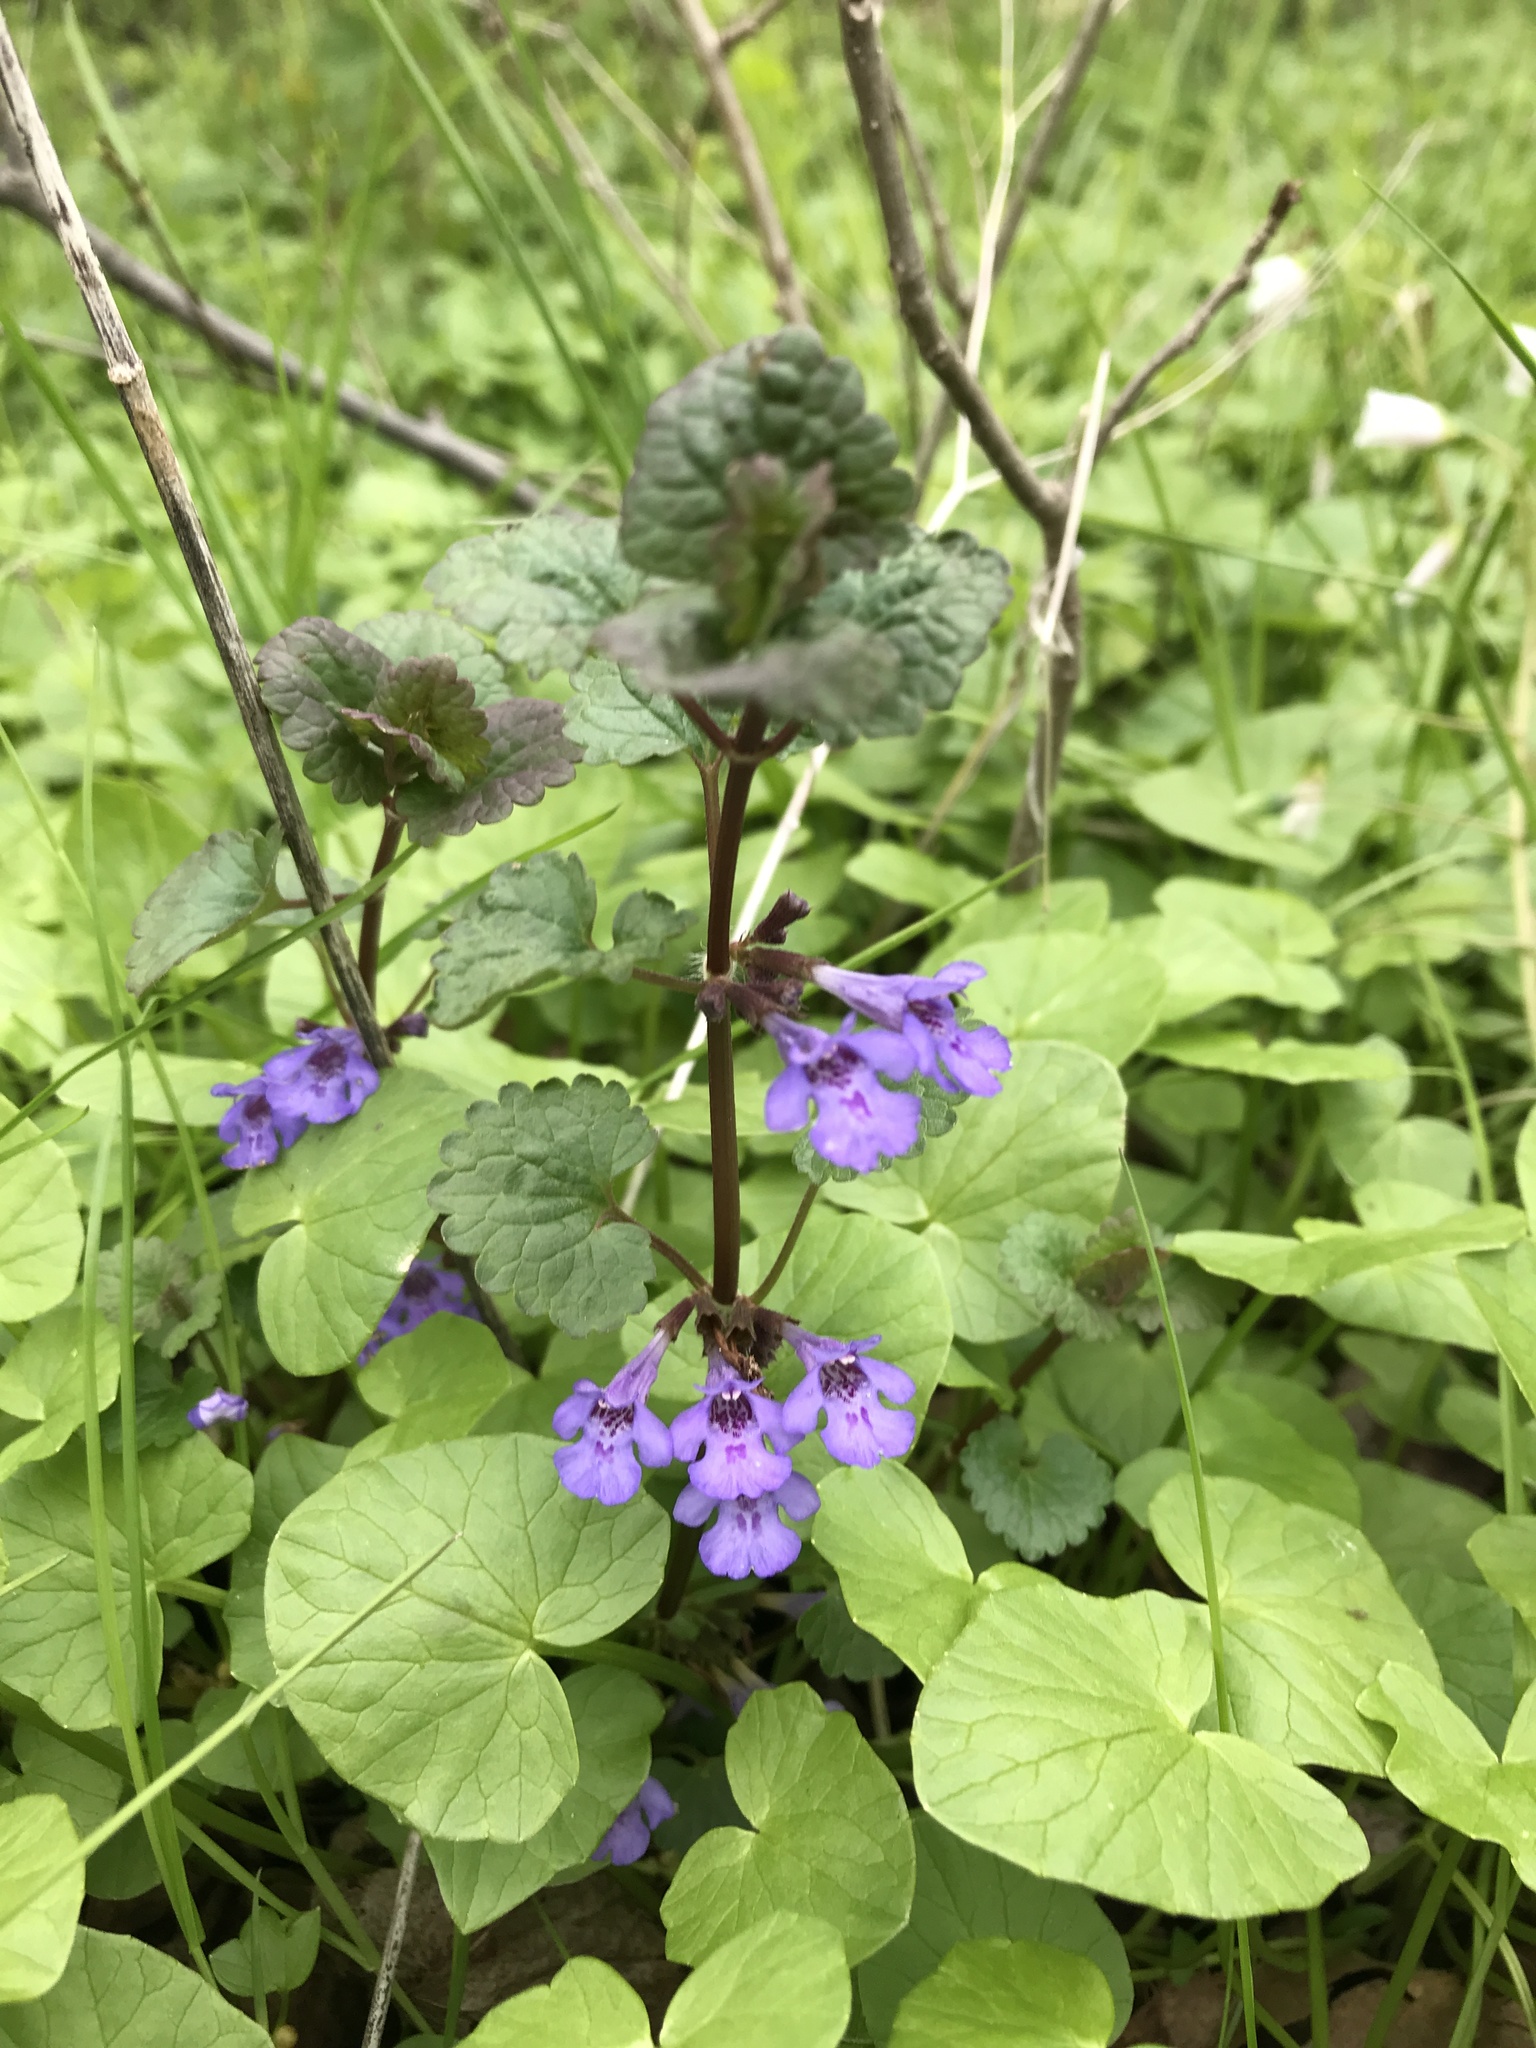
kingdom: Plantae
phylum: Tracheophyta
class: Magnoliopsida
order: Lamiales
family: Lamiaceae
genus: Glechoma
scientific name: Glechoma hederacea
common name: Ground ivy
